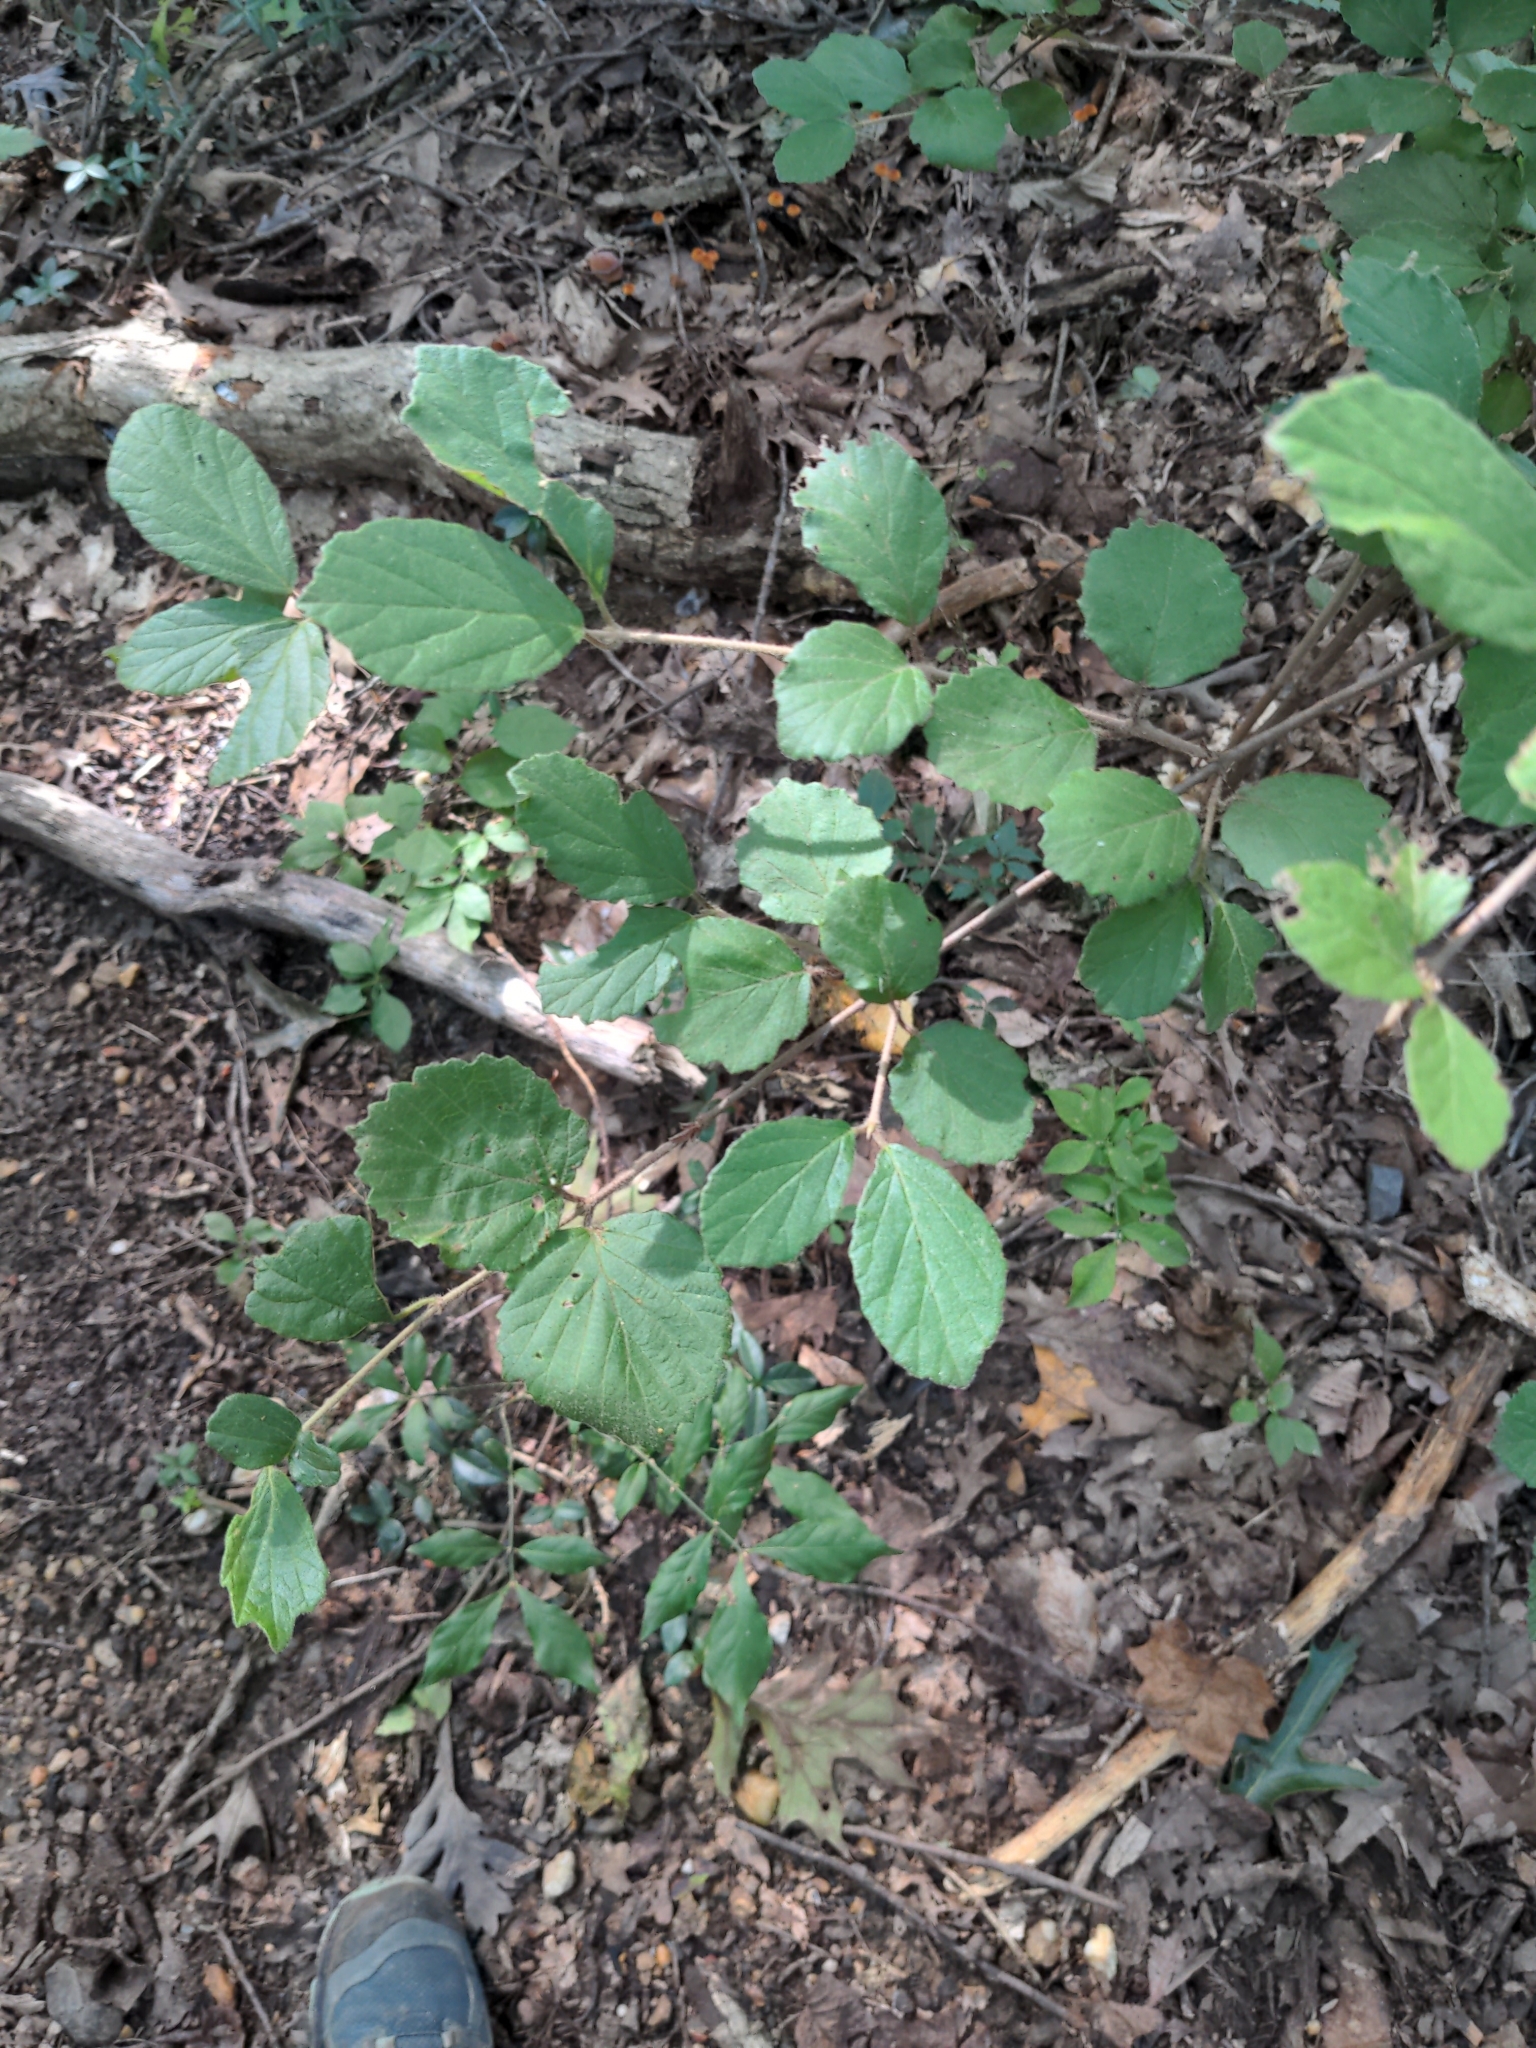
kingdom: Plantae
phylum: Tracheophyta
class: Magnoliopsida
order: Dipsacales
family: Viburnaceae
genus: Viburnum
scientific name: Viburnum dilatatum
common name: Linden arrowwood
